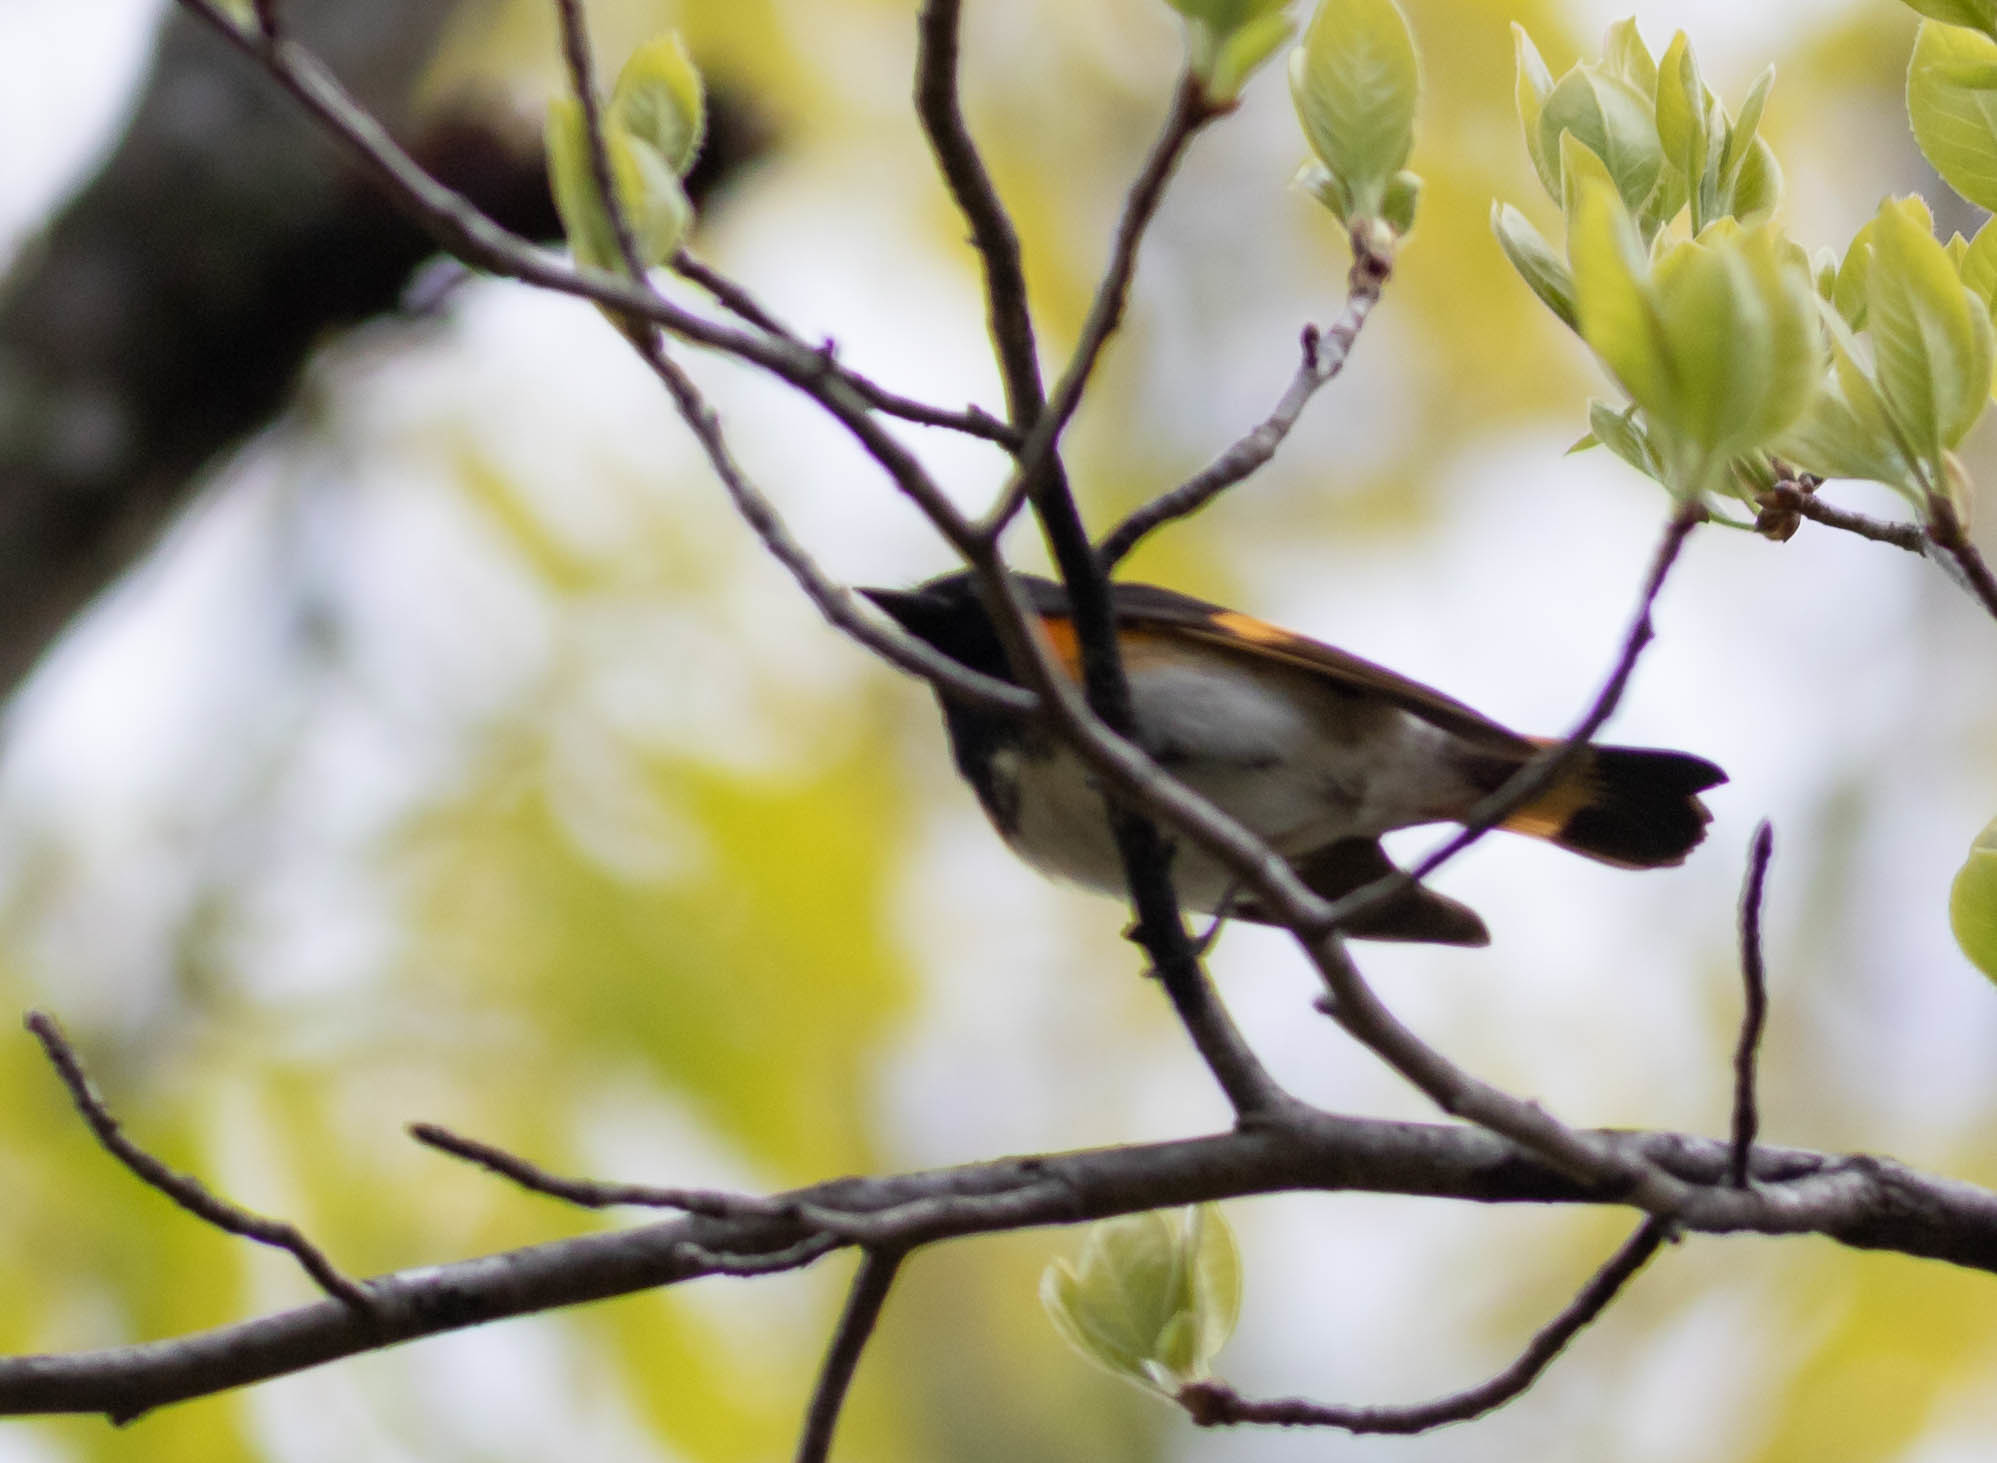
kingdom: Animalia
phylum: Chordata
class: Aves
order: Passeriformes
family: Parulidae
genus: Setophaga
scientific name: Setophaga ruticilla
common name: American redstart
